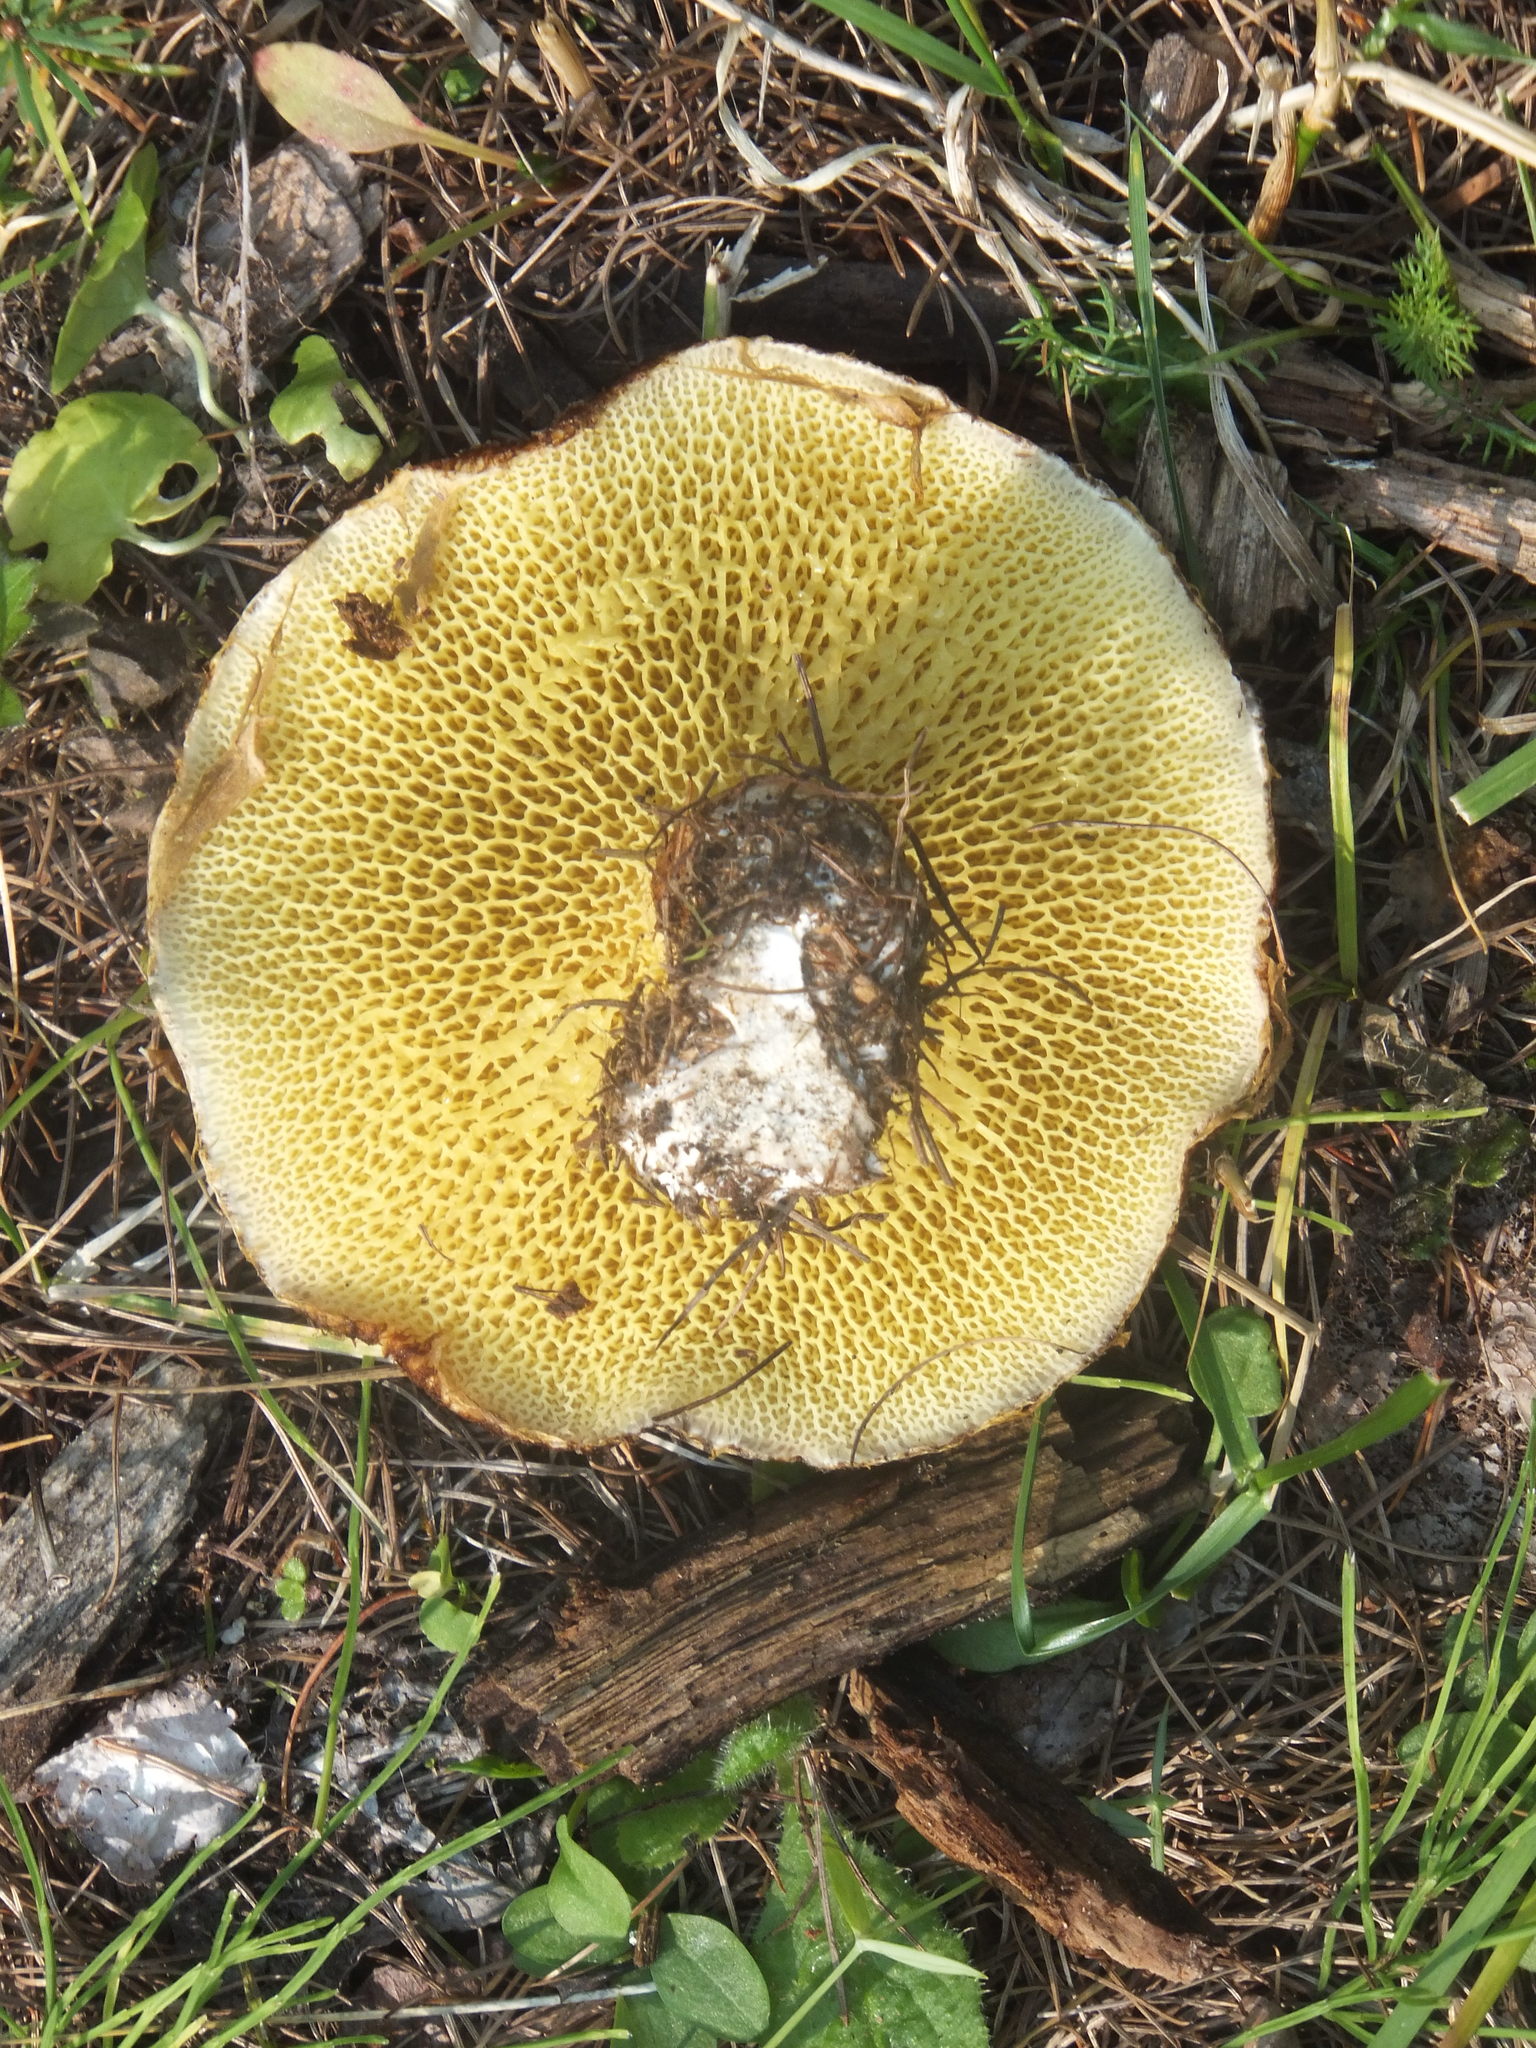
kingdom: Fungi
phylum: Basidiomycota
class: Agaricomycetes
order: Boletales
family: Suillaceae
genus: Boletinus
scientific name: Boletinus ampliporus
